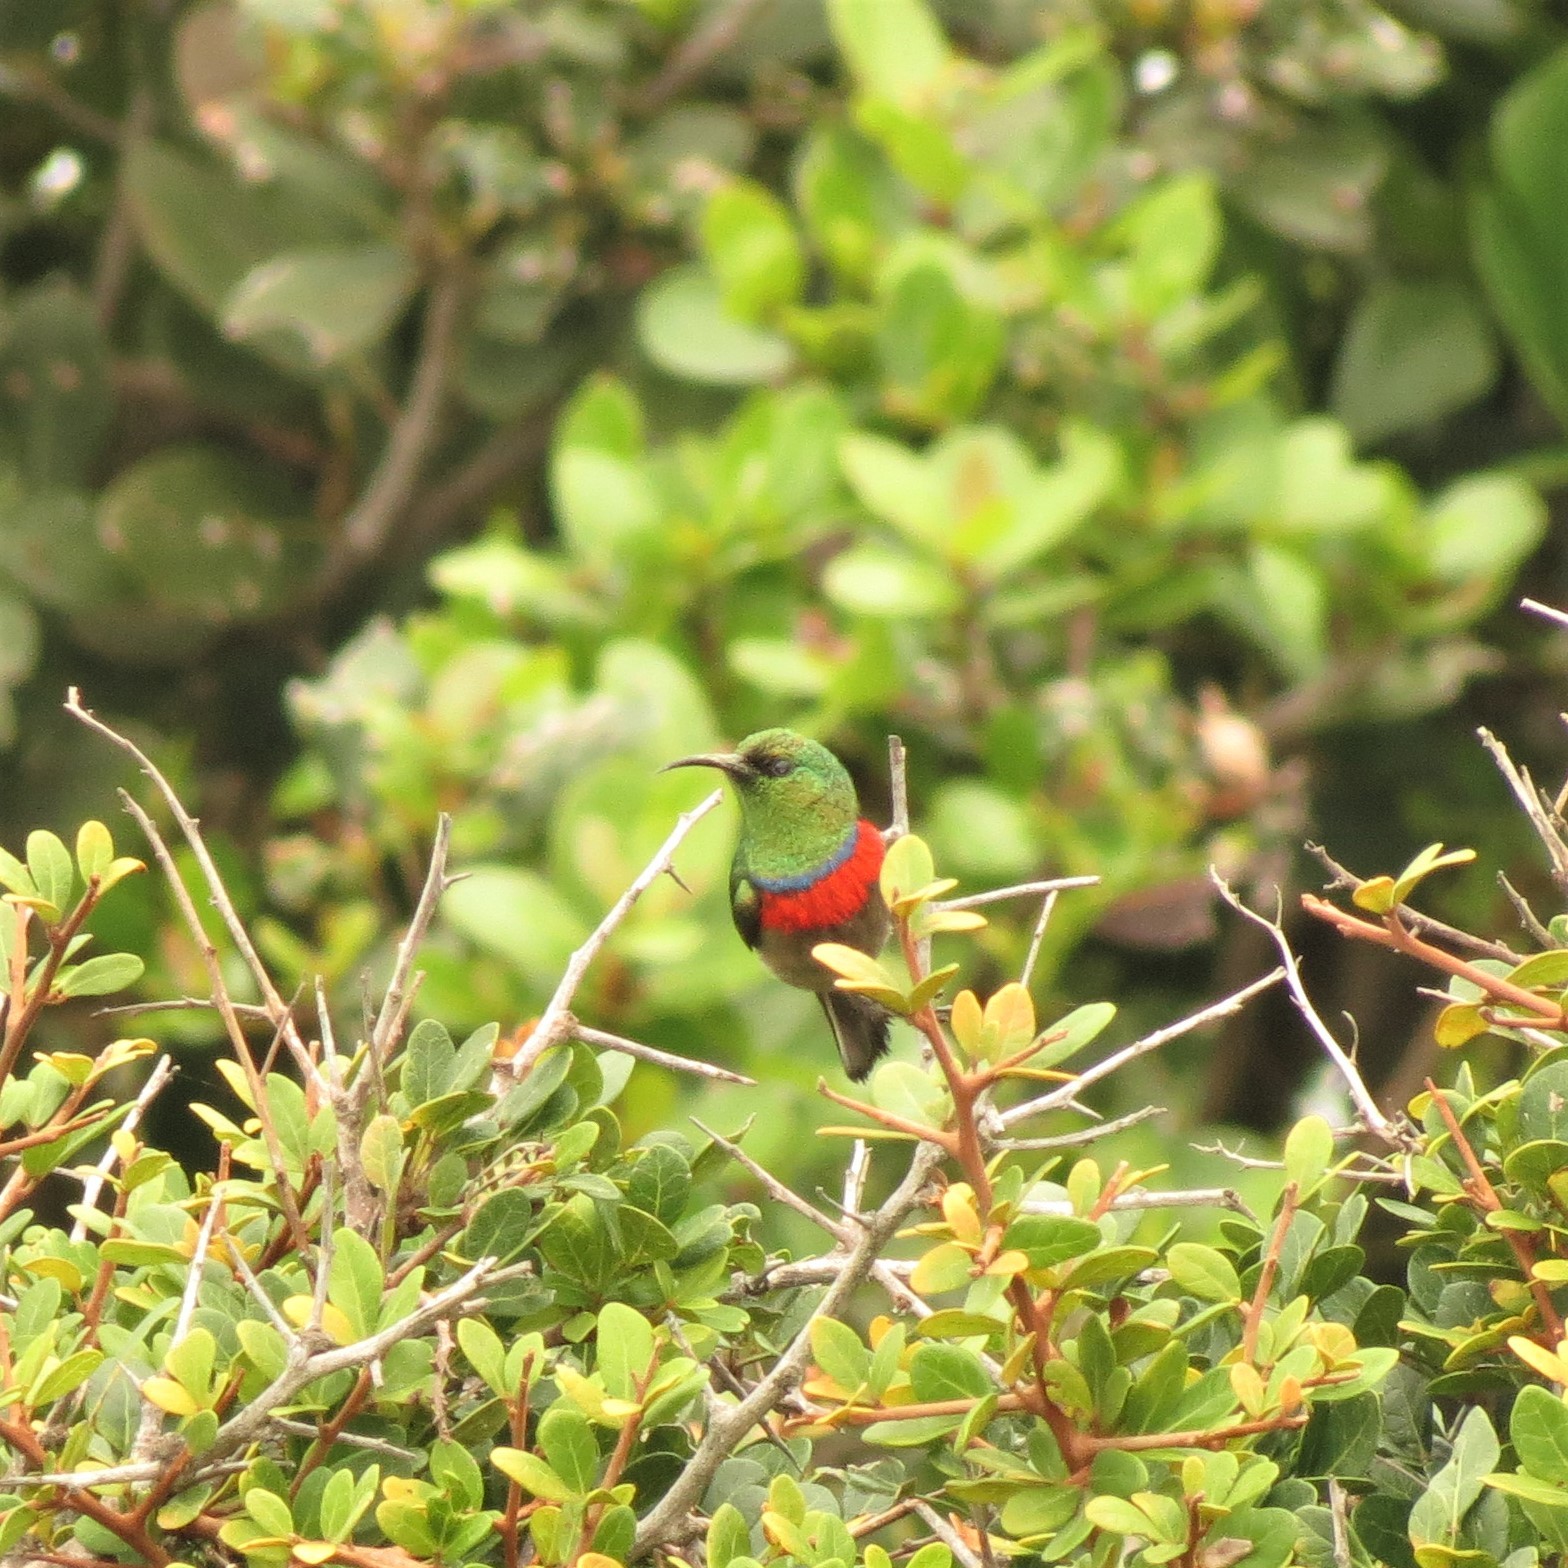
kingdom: Animalia
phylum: Chordata
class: Aves
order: Passeriformes
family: Nectariniidae
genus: Cinnyris
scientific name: Cinnyris chalybeus
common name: Southern double-collared sunbird
